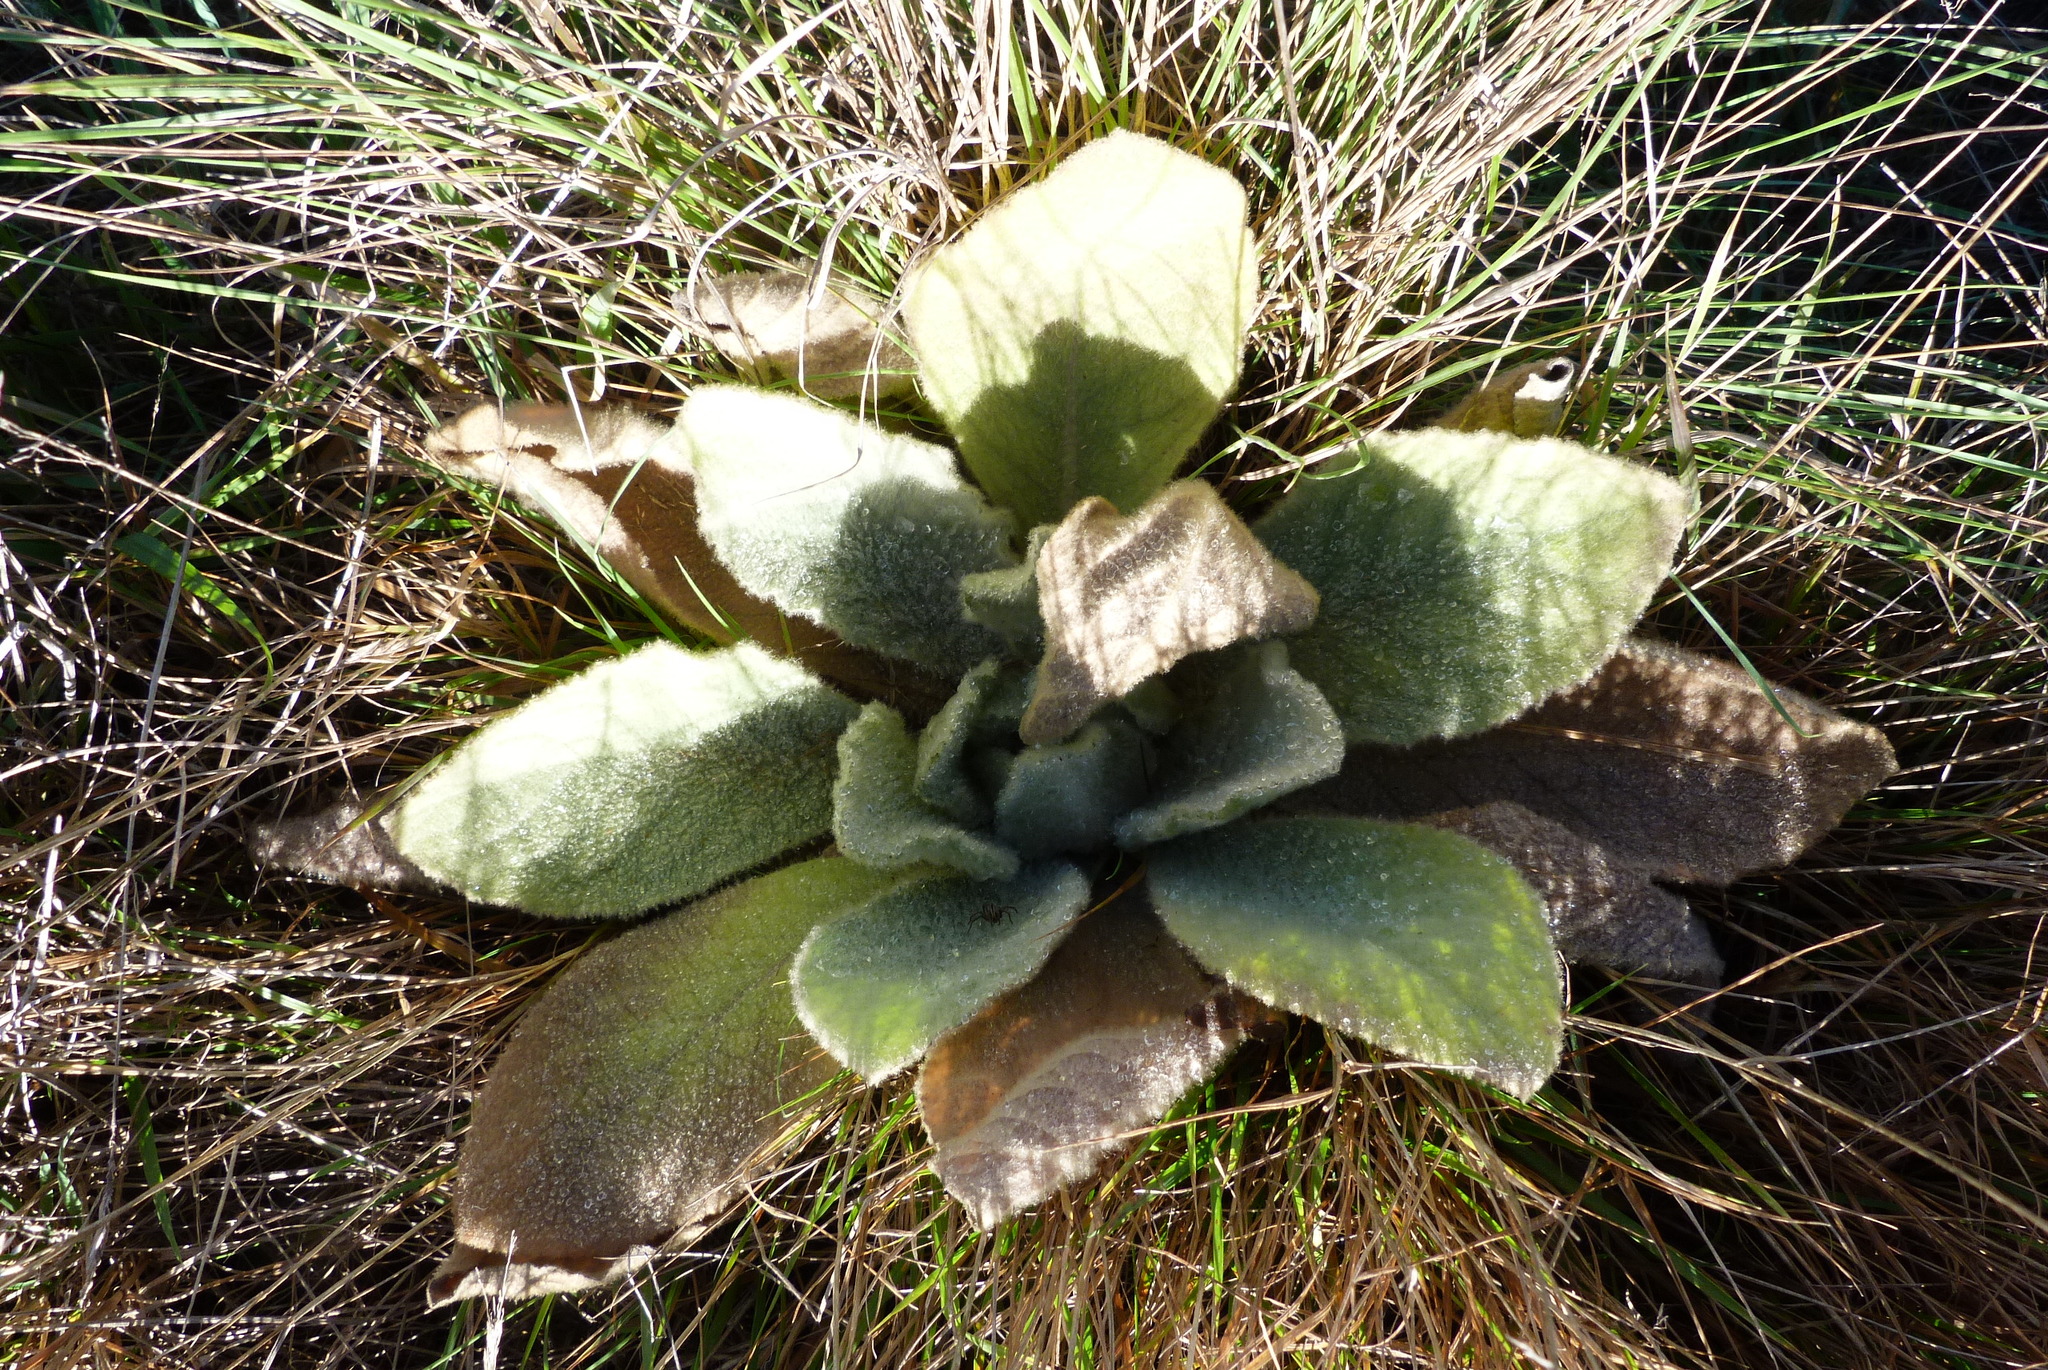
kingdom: Plantae
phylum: Tracheophyta
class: Magnoliopsida
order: Lamiales
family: Scrophulariaceae
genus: Verbascum
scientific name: Verbascum thapsus
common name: Common mullein
